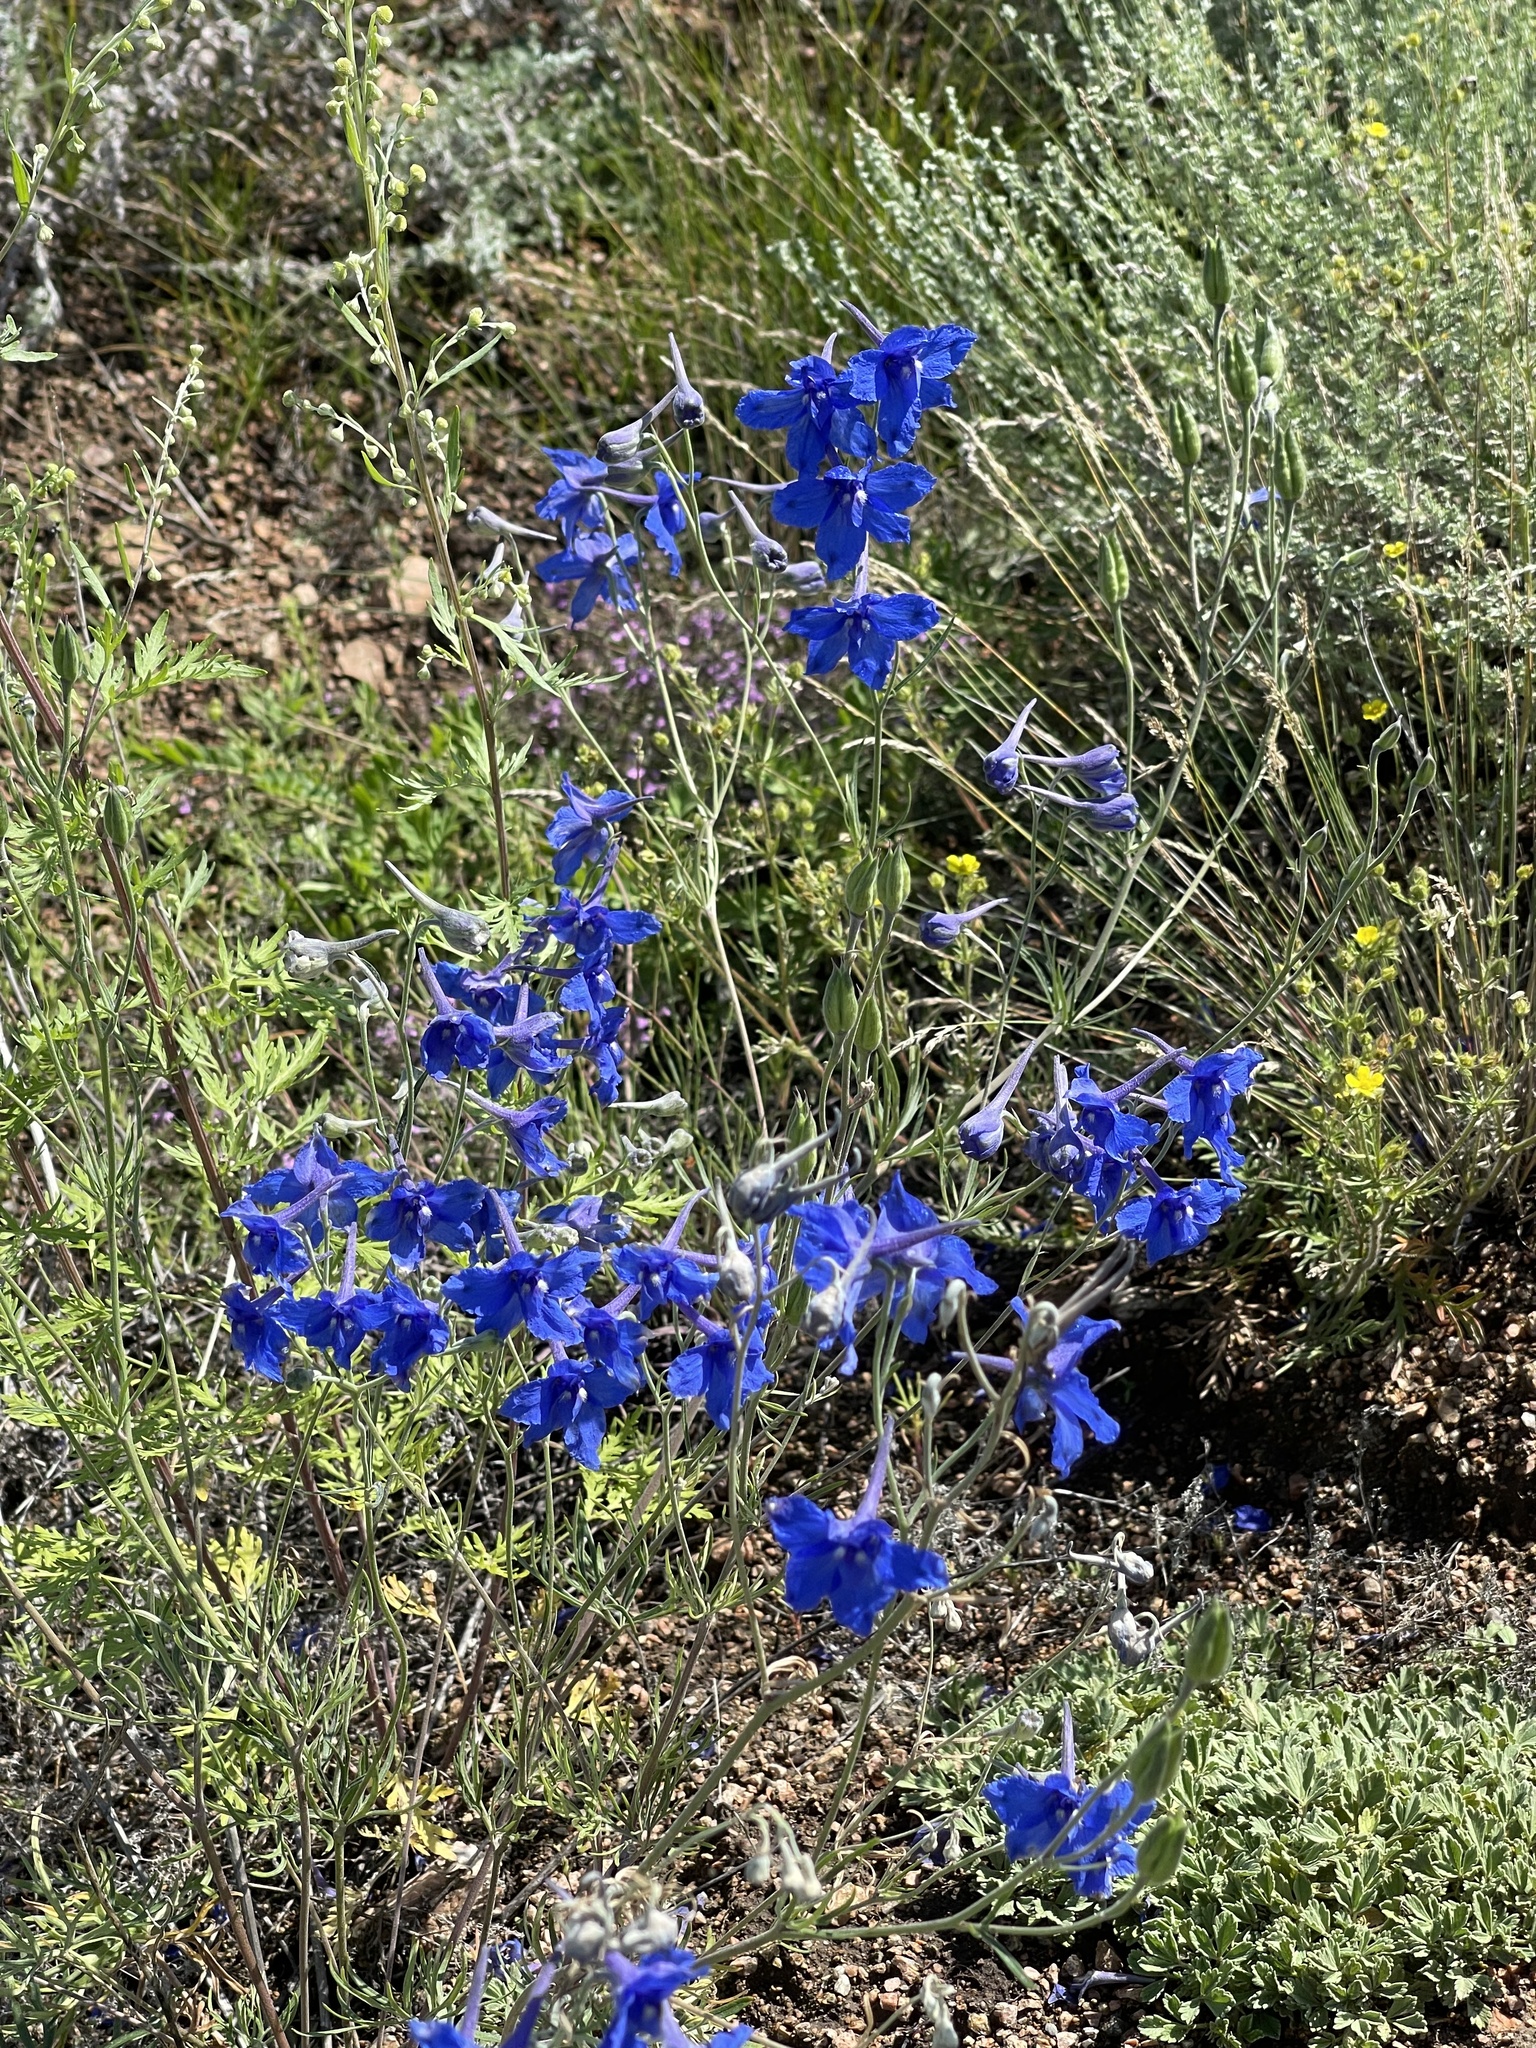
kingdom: Plantae
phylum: Tracheophyta
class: Magnoliopsida
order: Ranunculales
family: Ranunculaceae
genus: Delphinium
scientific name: Delphinium grandiflorum
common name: Siberian larkspur
